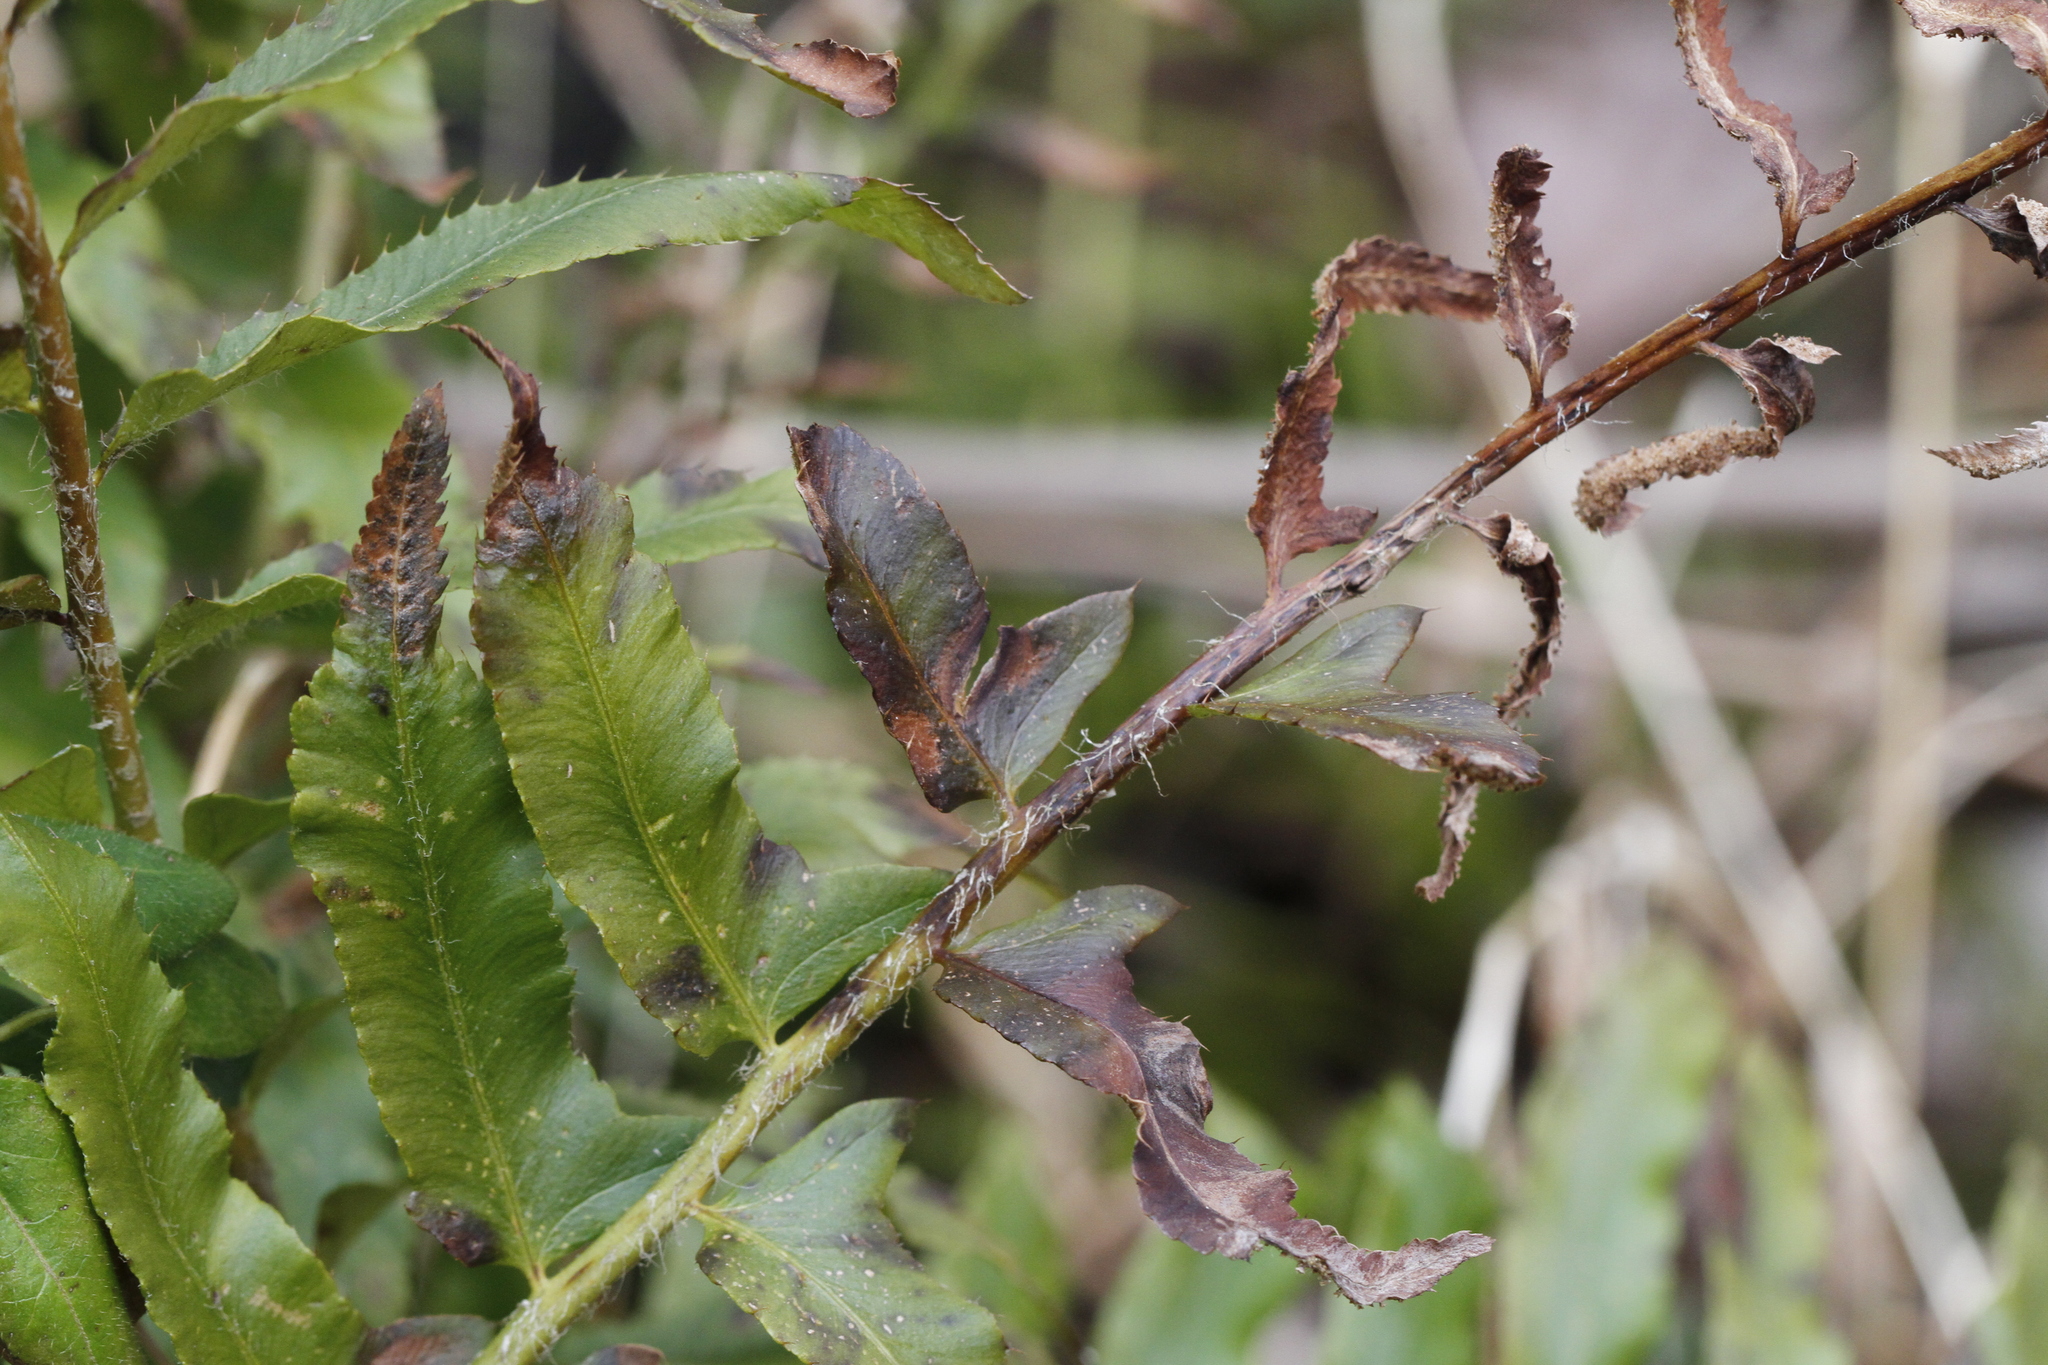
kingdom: Plantae
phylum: Tracheophyta
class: Polypodiopsida
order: Polypodiales
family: Dryopteridaceae
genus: Polystichum
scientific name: Polystichum acrostichoides
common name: Christmas fern
